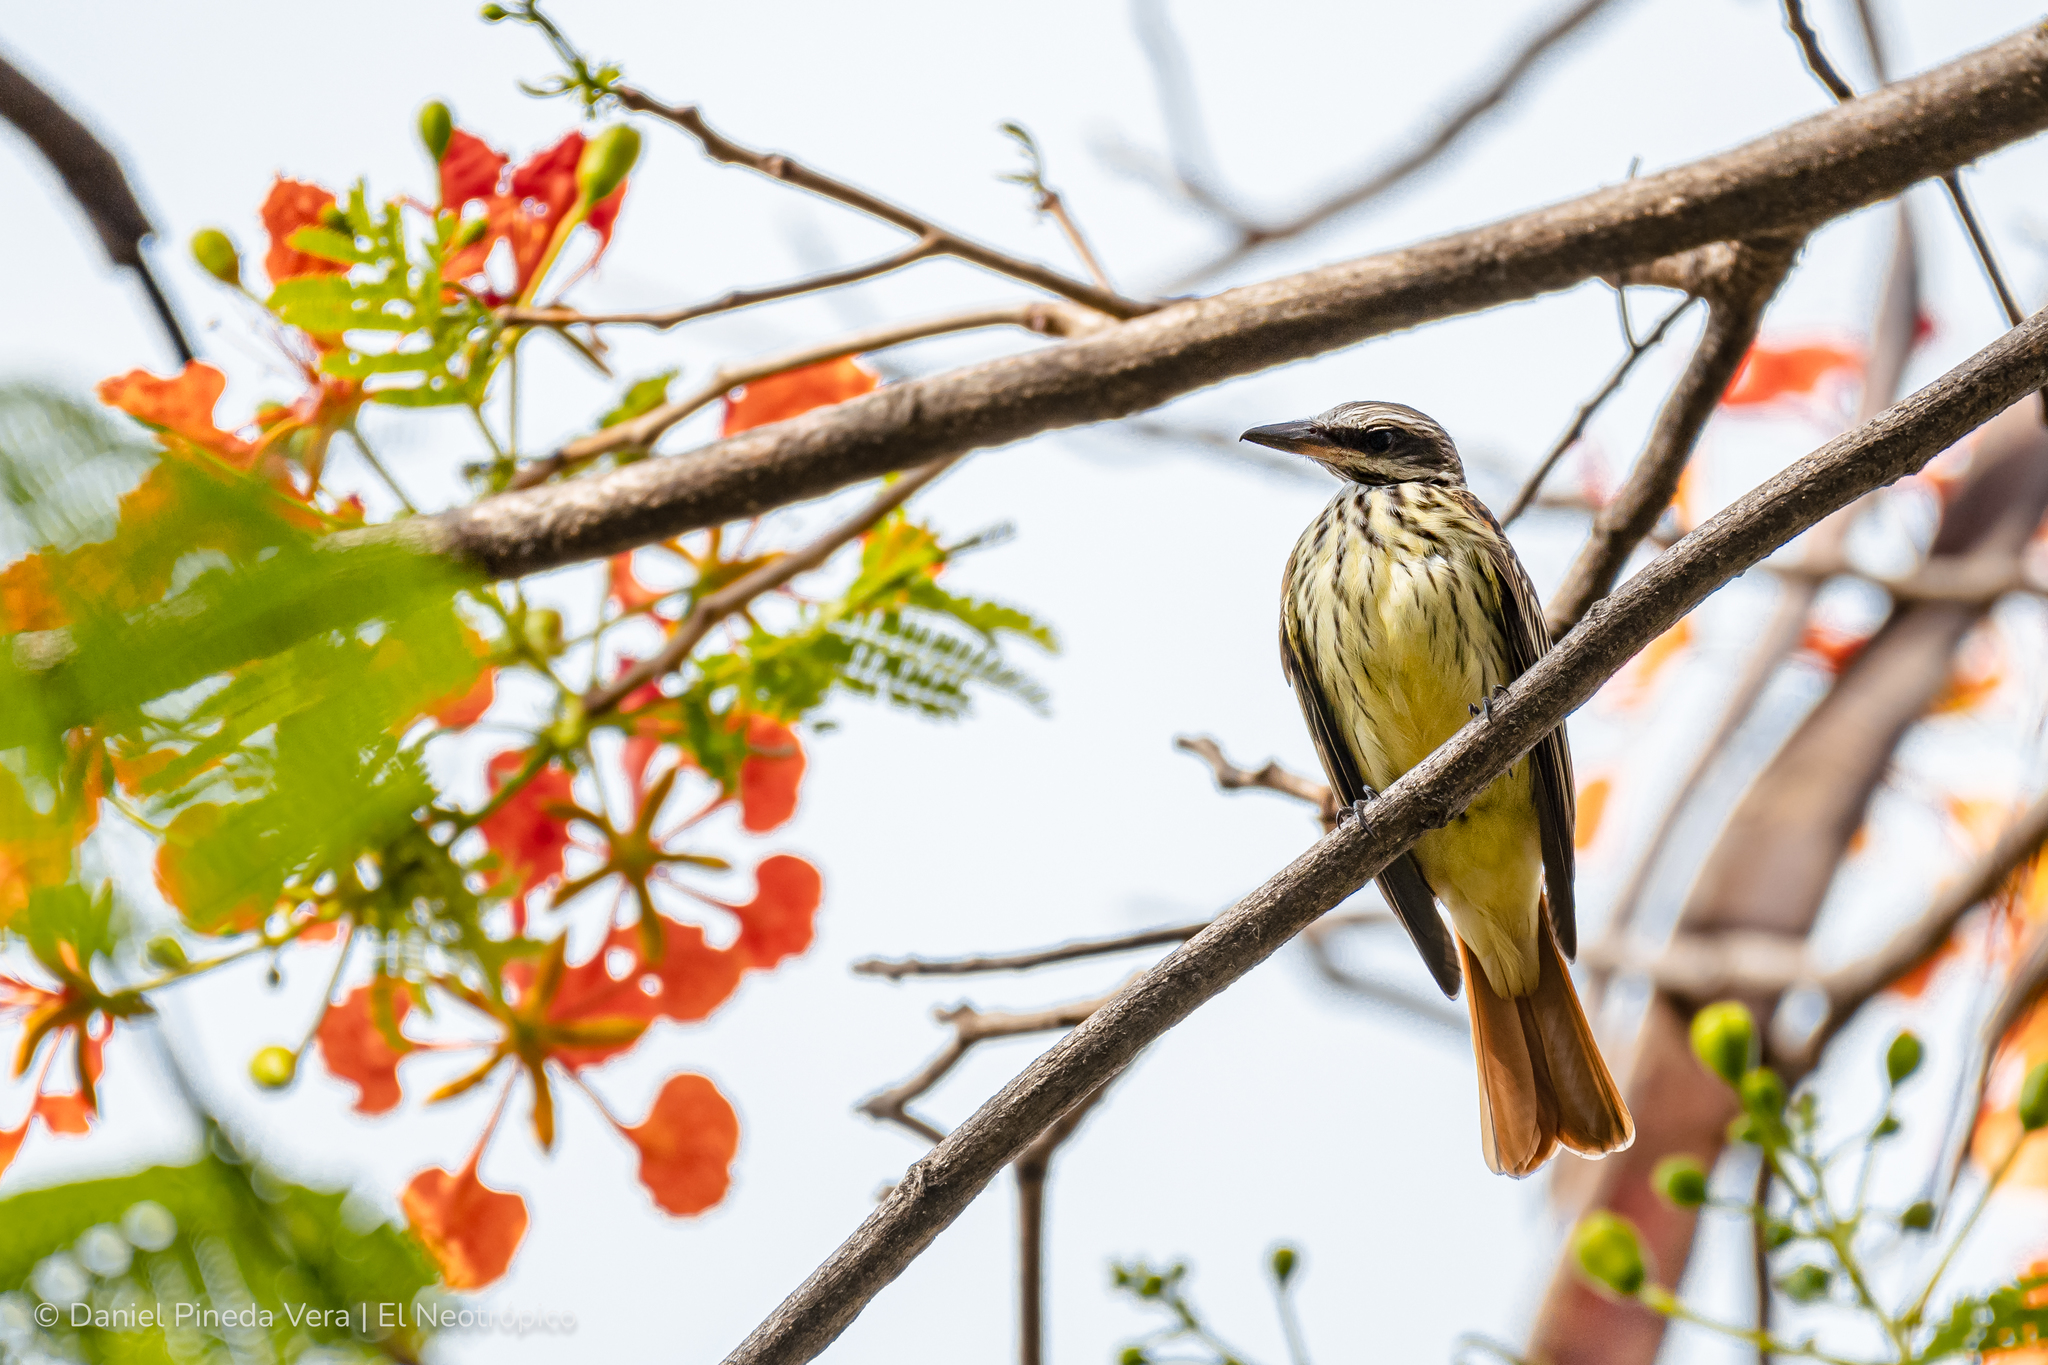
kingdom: Animalia
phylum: Chordata
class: Aves
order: Passeriformes
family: Tyrannidae
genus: Myiodynastes
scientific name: Myiodynastes luteiventris
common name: Sulphur-bellied flycatcher
